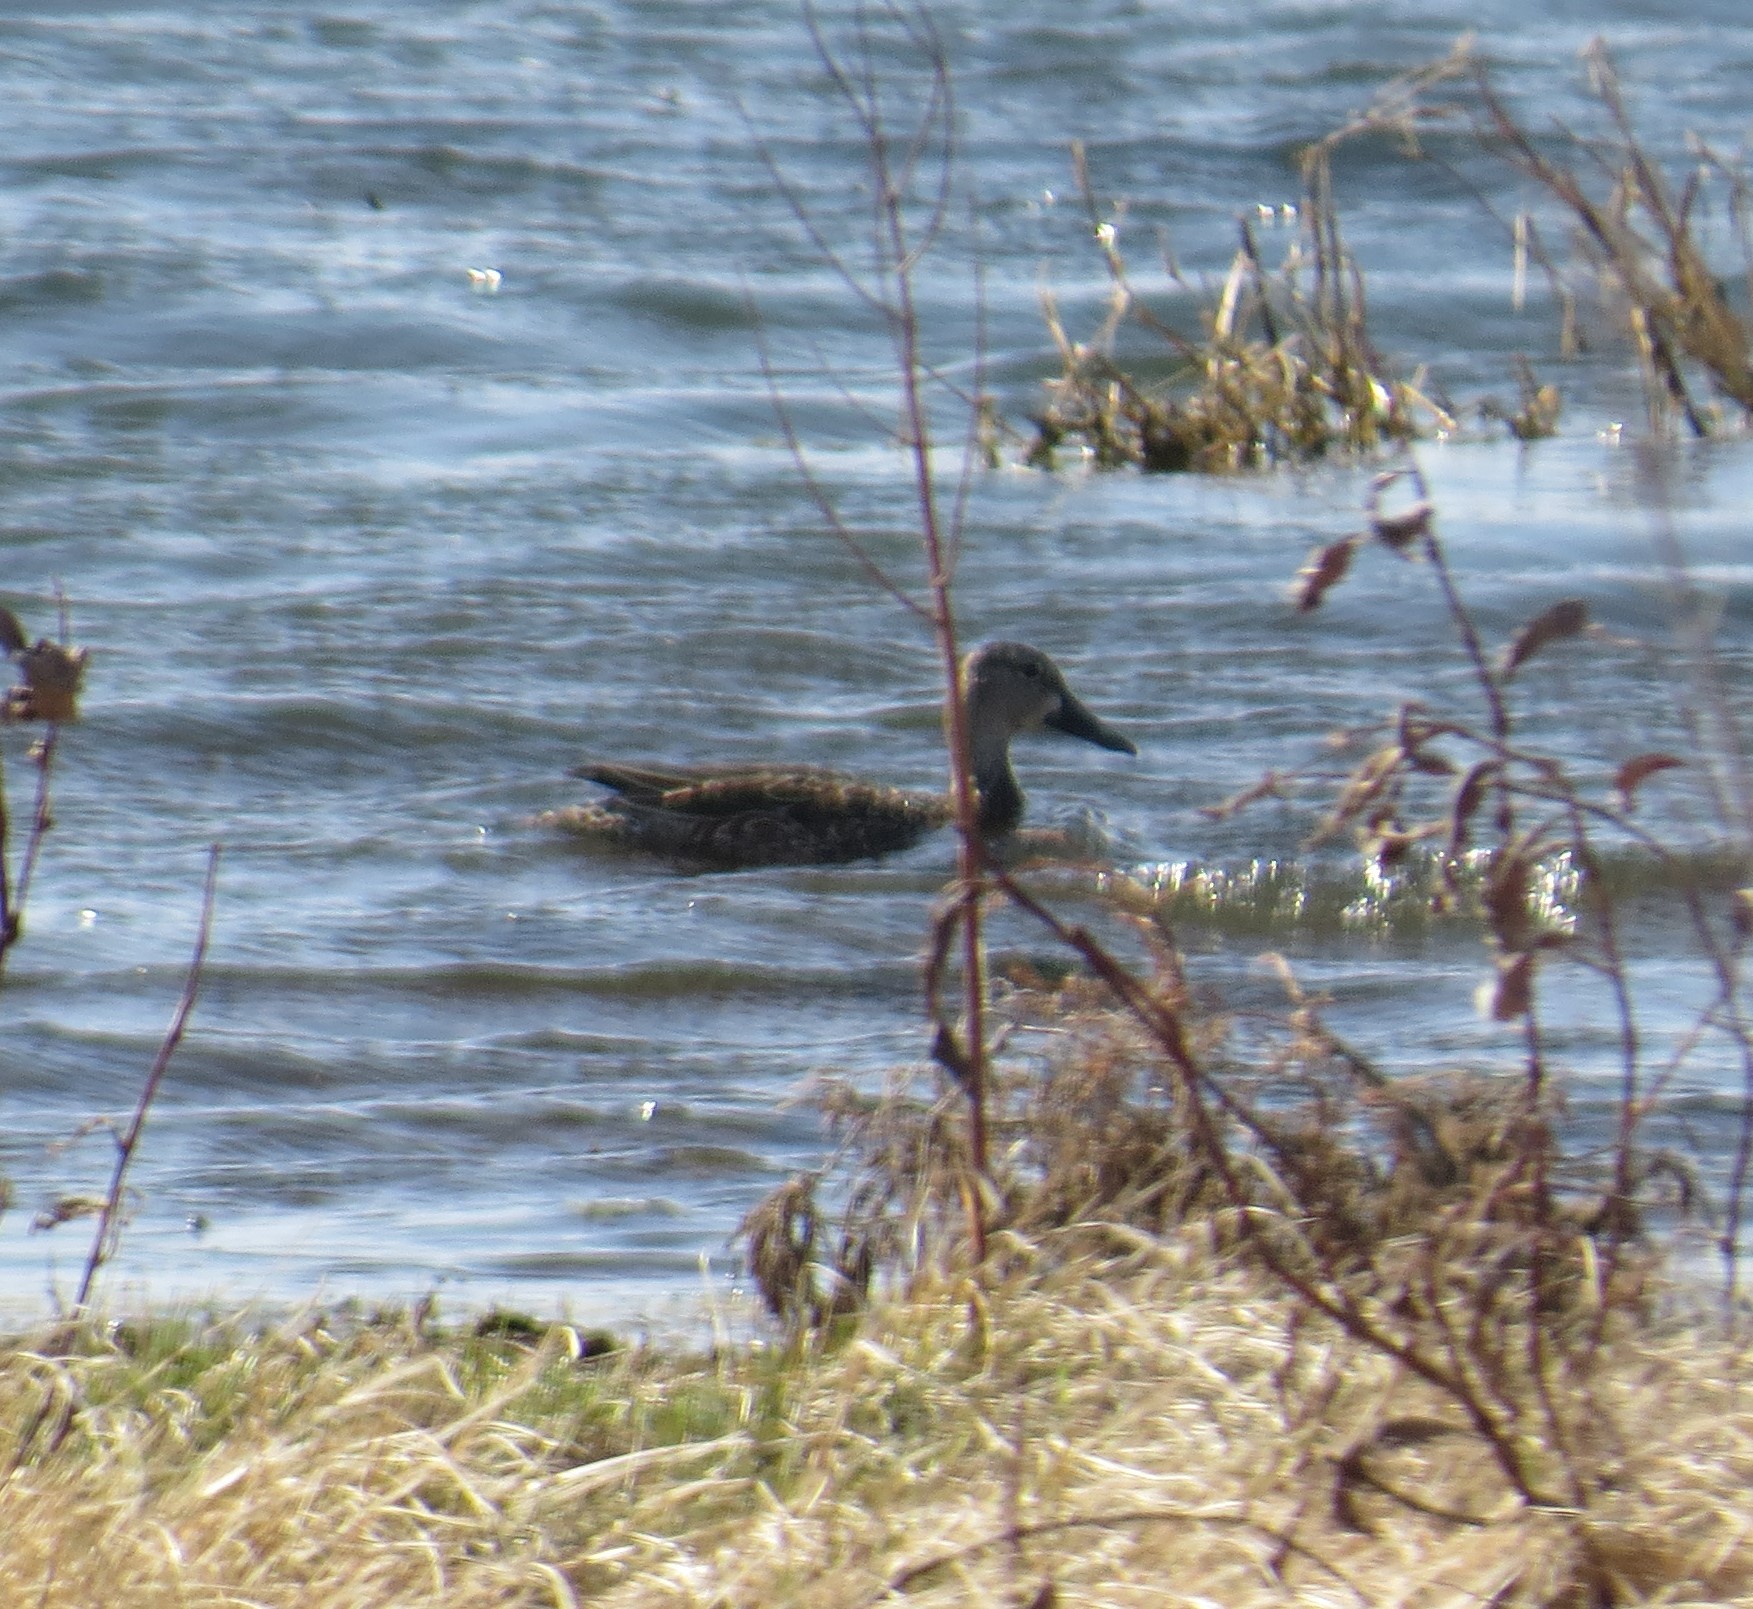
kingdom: Animalia
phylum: Chordata
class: Aves
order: Anseriformes
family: Anatidae
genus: Spatula
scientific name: Spatula discors
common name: Blue-winged teal
